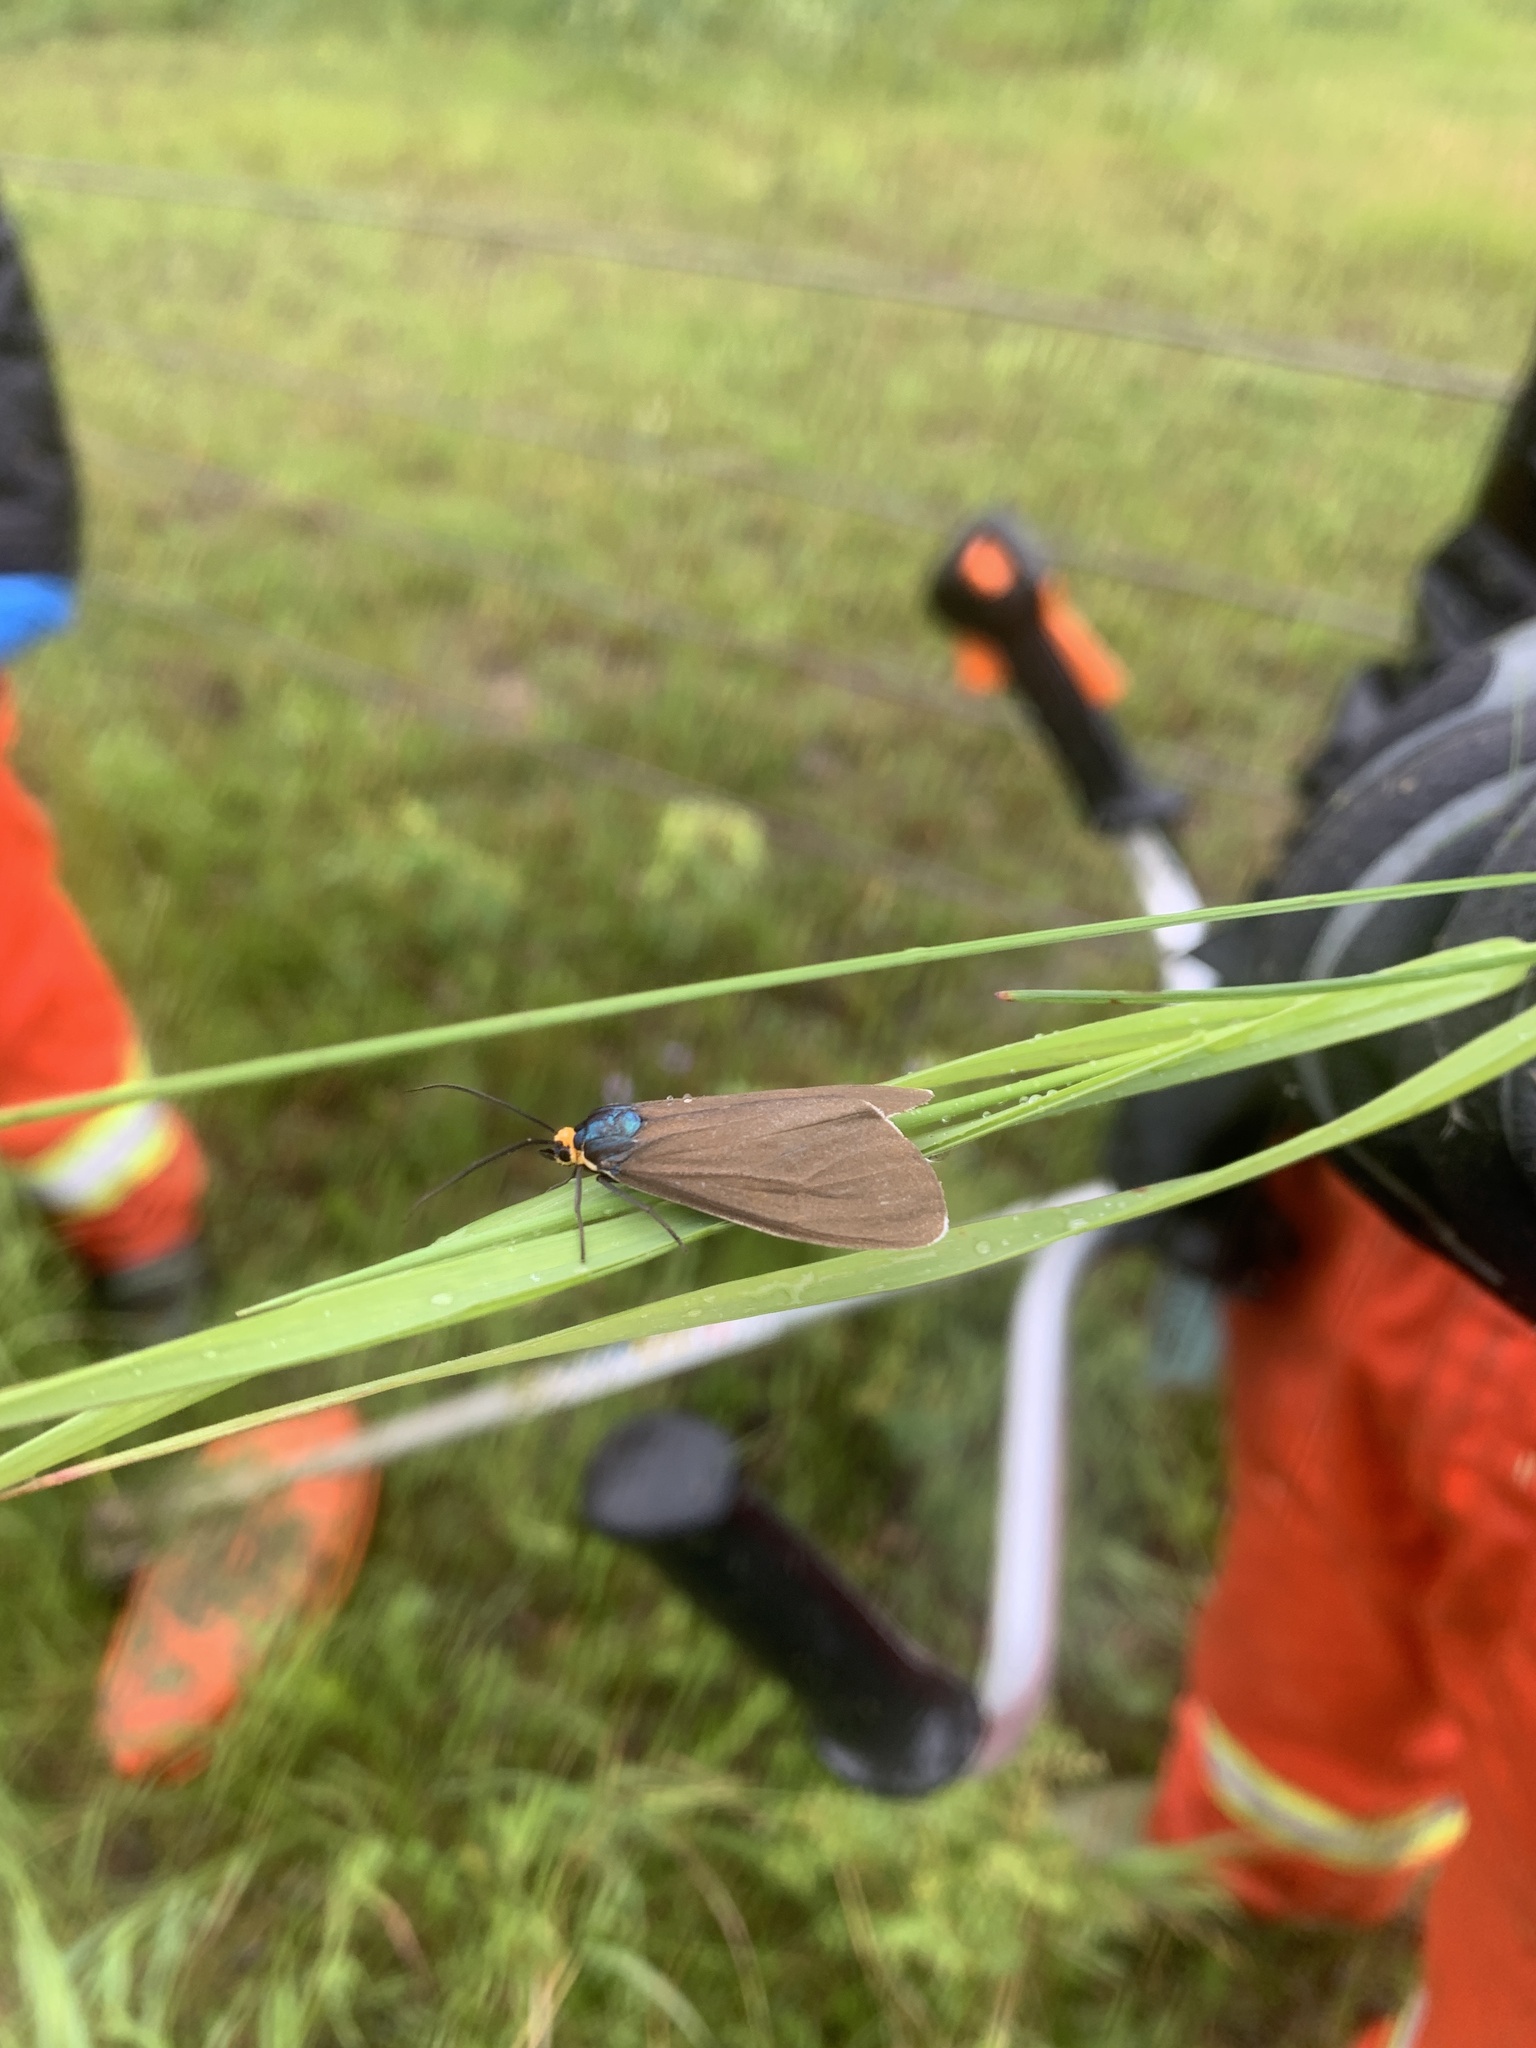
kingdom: Animalia
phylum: Arthropoda
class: Insecta
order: Lepidoptera
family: Erebidae
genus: Ctenucha
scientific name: Ctenucha virginica
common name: Virginia ctenucha moth
